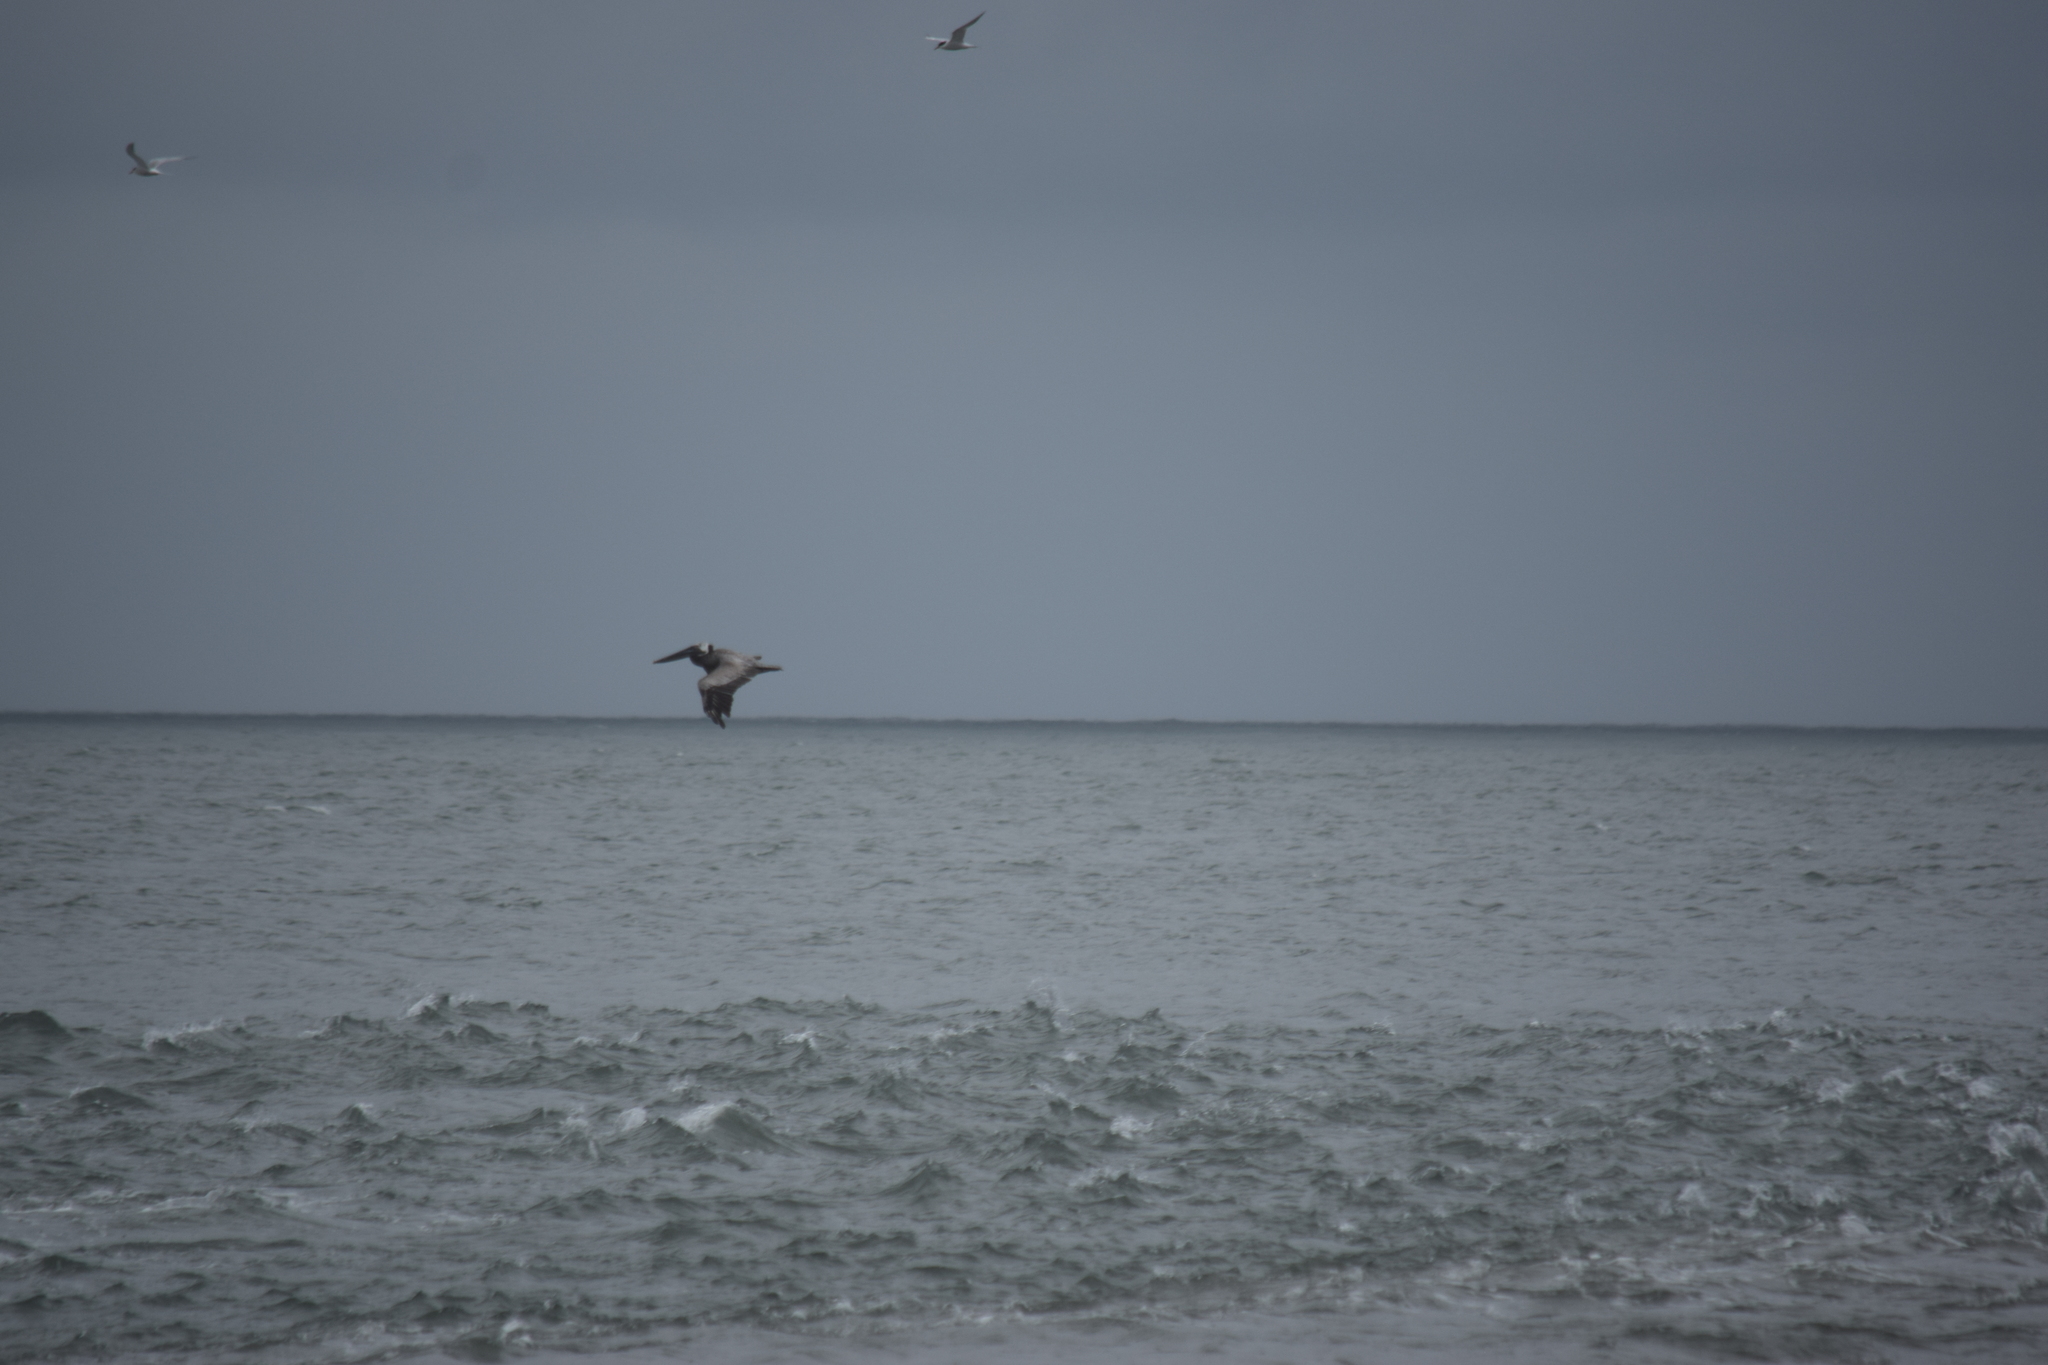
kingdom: Animalia
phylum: Chordata
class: Aves
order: Pelecaniformes
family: Pelecanidae
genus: Pelecanus
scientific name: Pelecanus occidentalis
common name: Brown pelican
